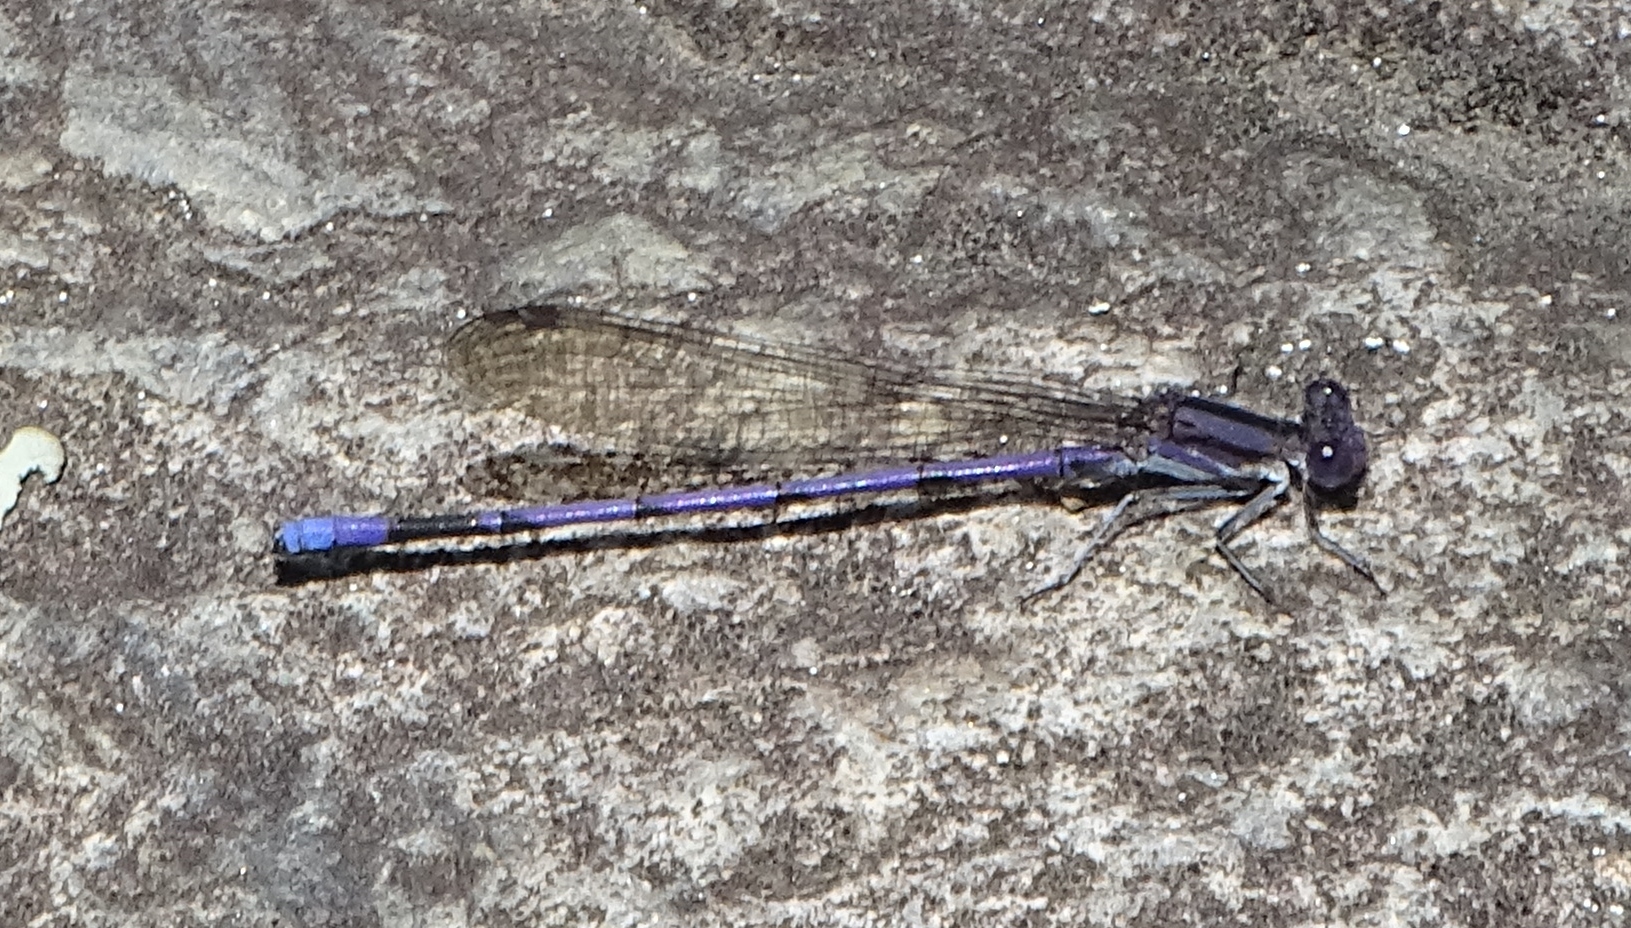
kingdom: Animalia
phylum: Arthropoda
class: Insecta
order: Odonata
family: Coenagrionidae
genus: Argia
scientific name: Argia fumipennis
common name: Variable dancer
